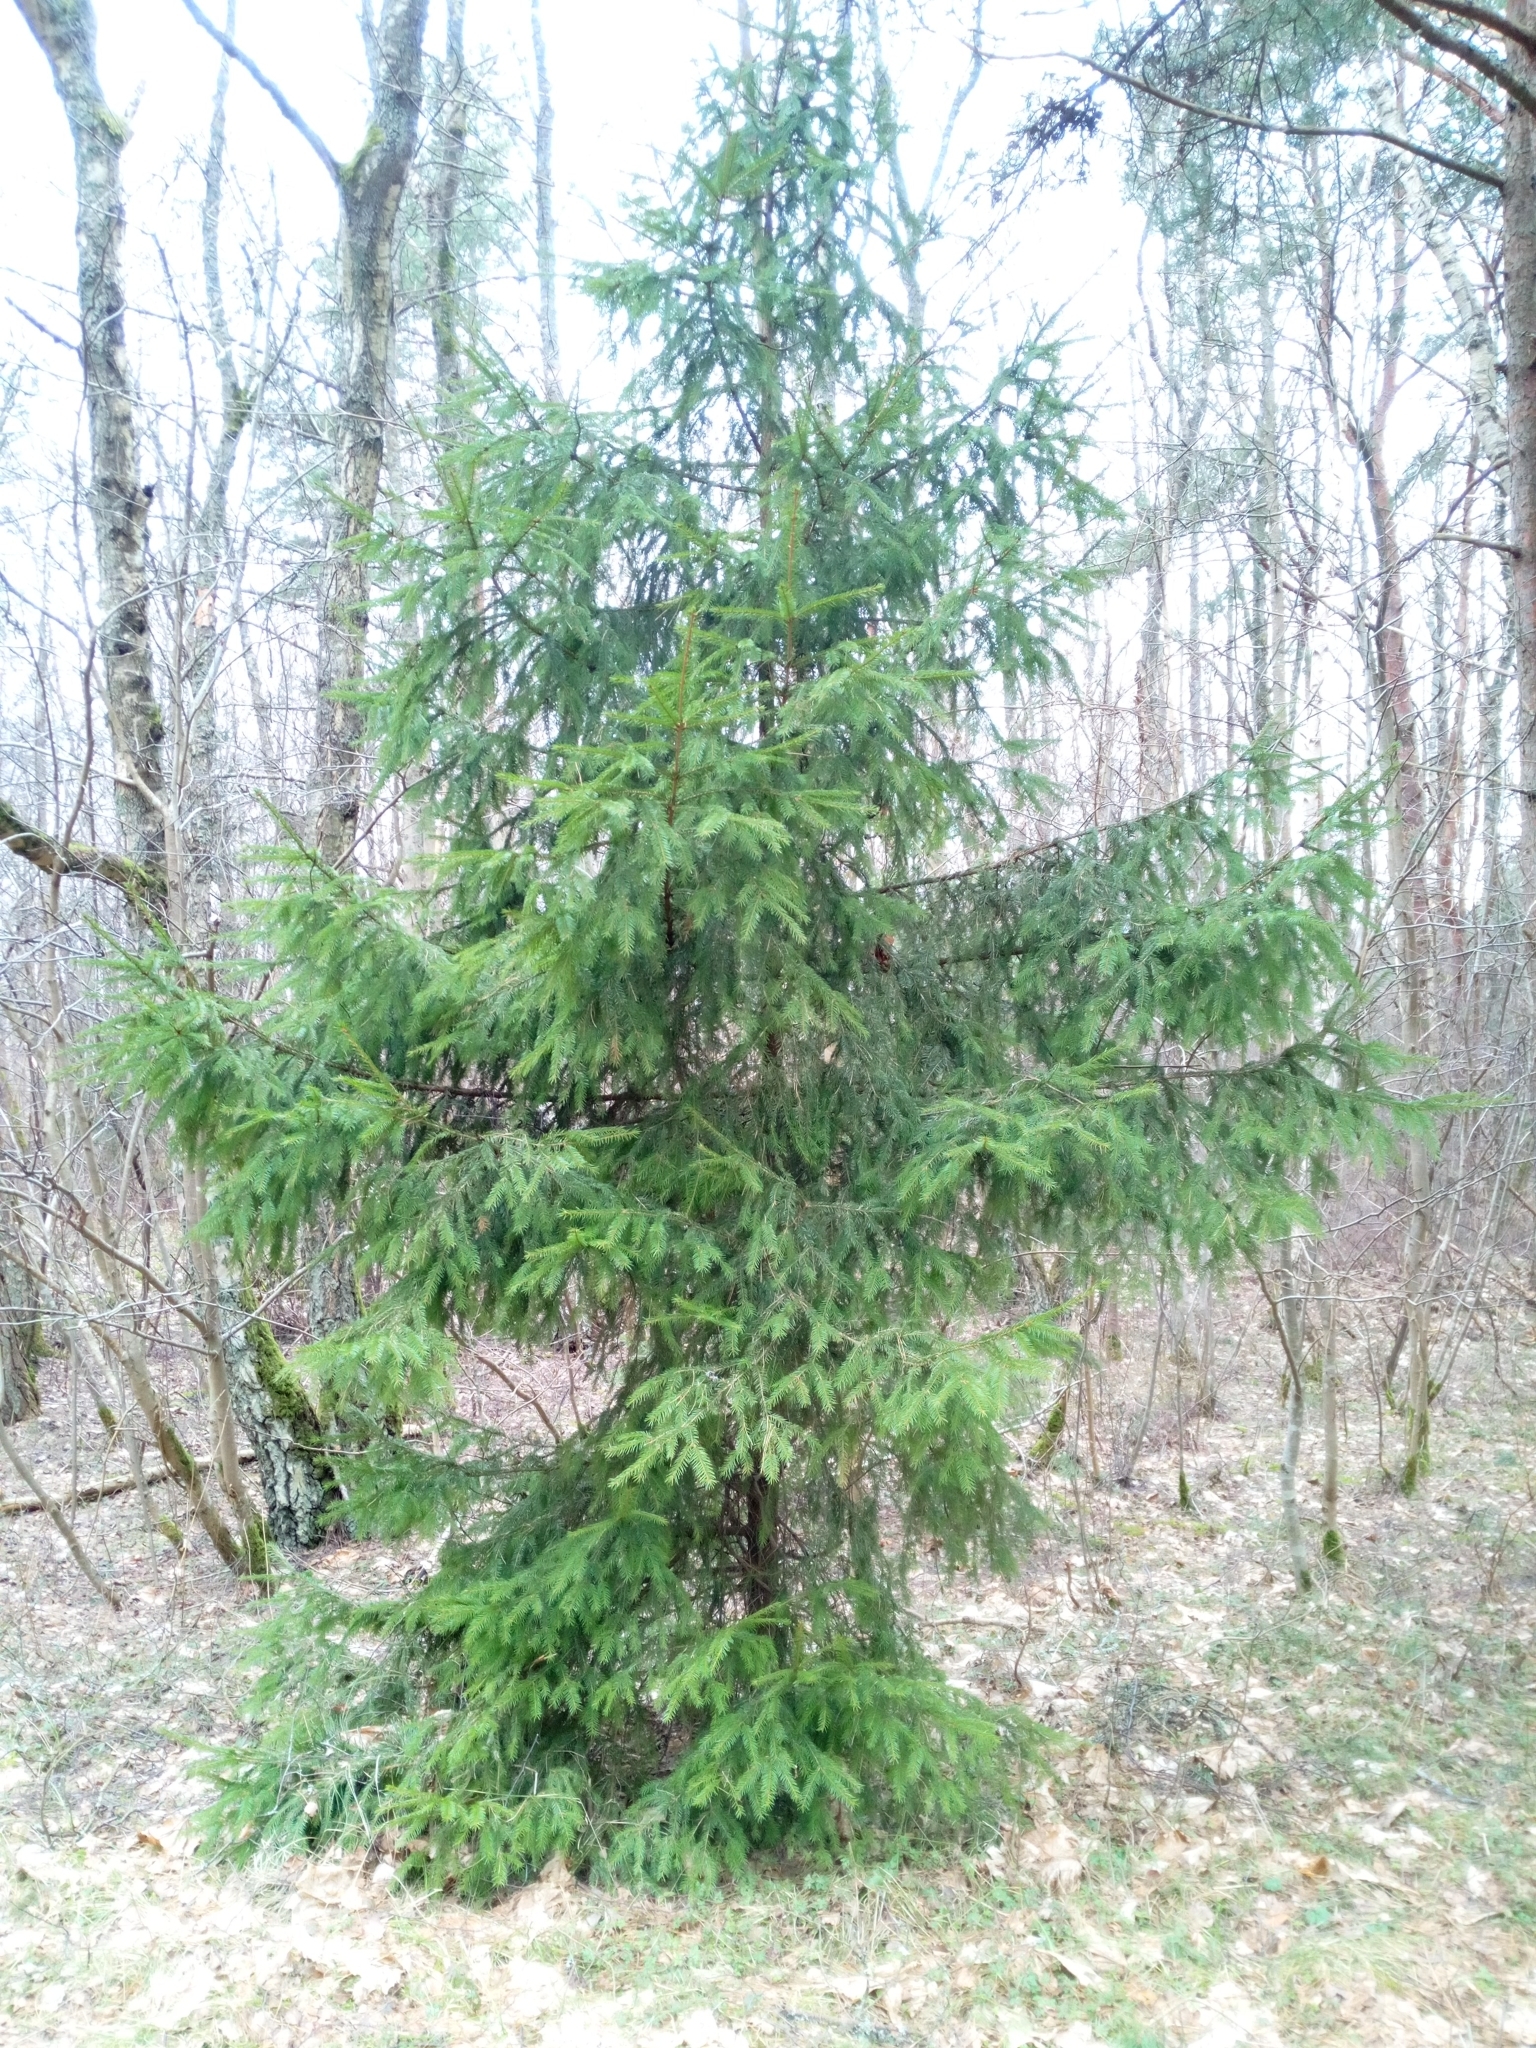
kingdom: Plantae
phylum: Tracheophyta
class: Pinopsida
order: Pinales
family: Pinaceae
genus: Picea
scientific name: Picea abies
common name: Norway spruce
